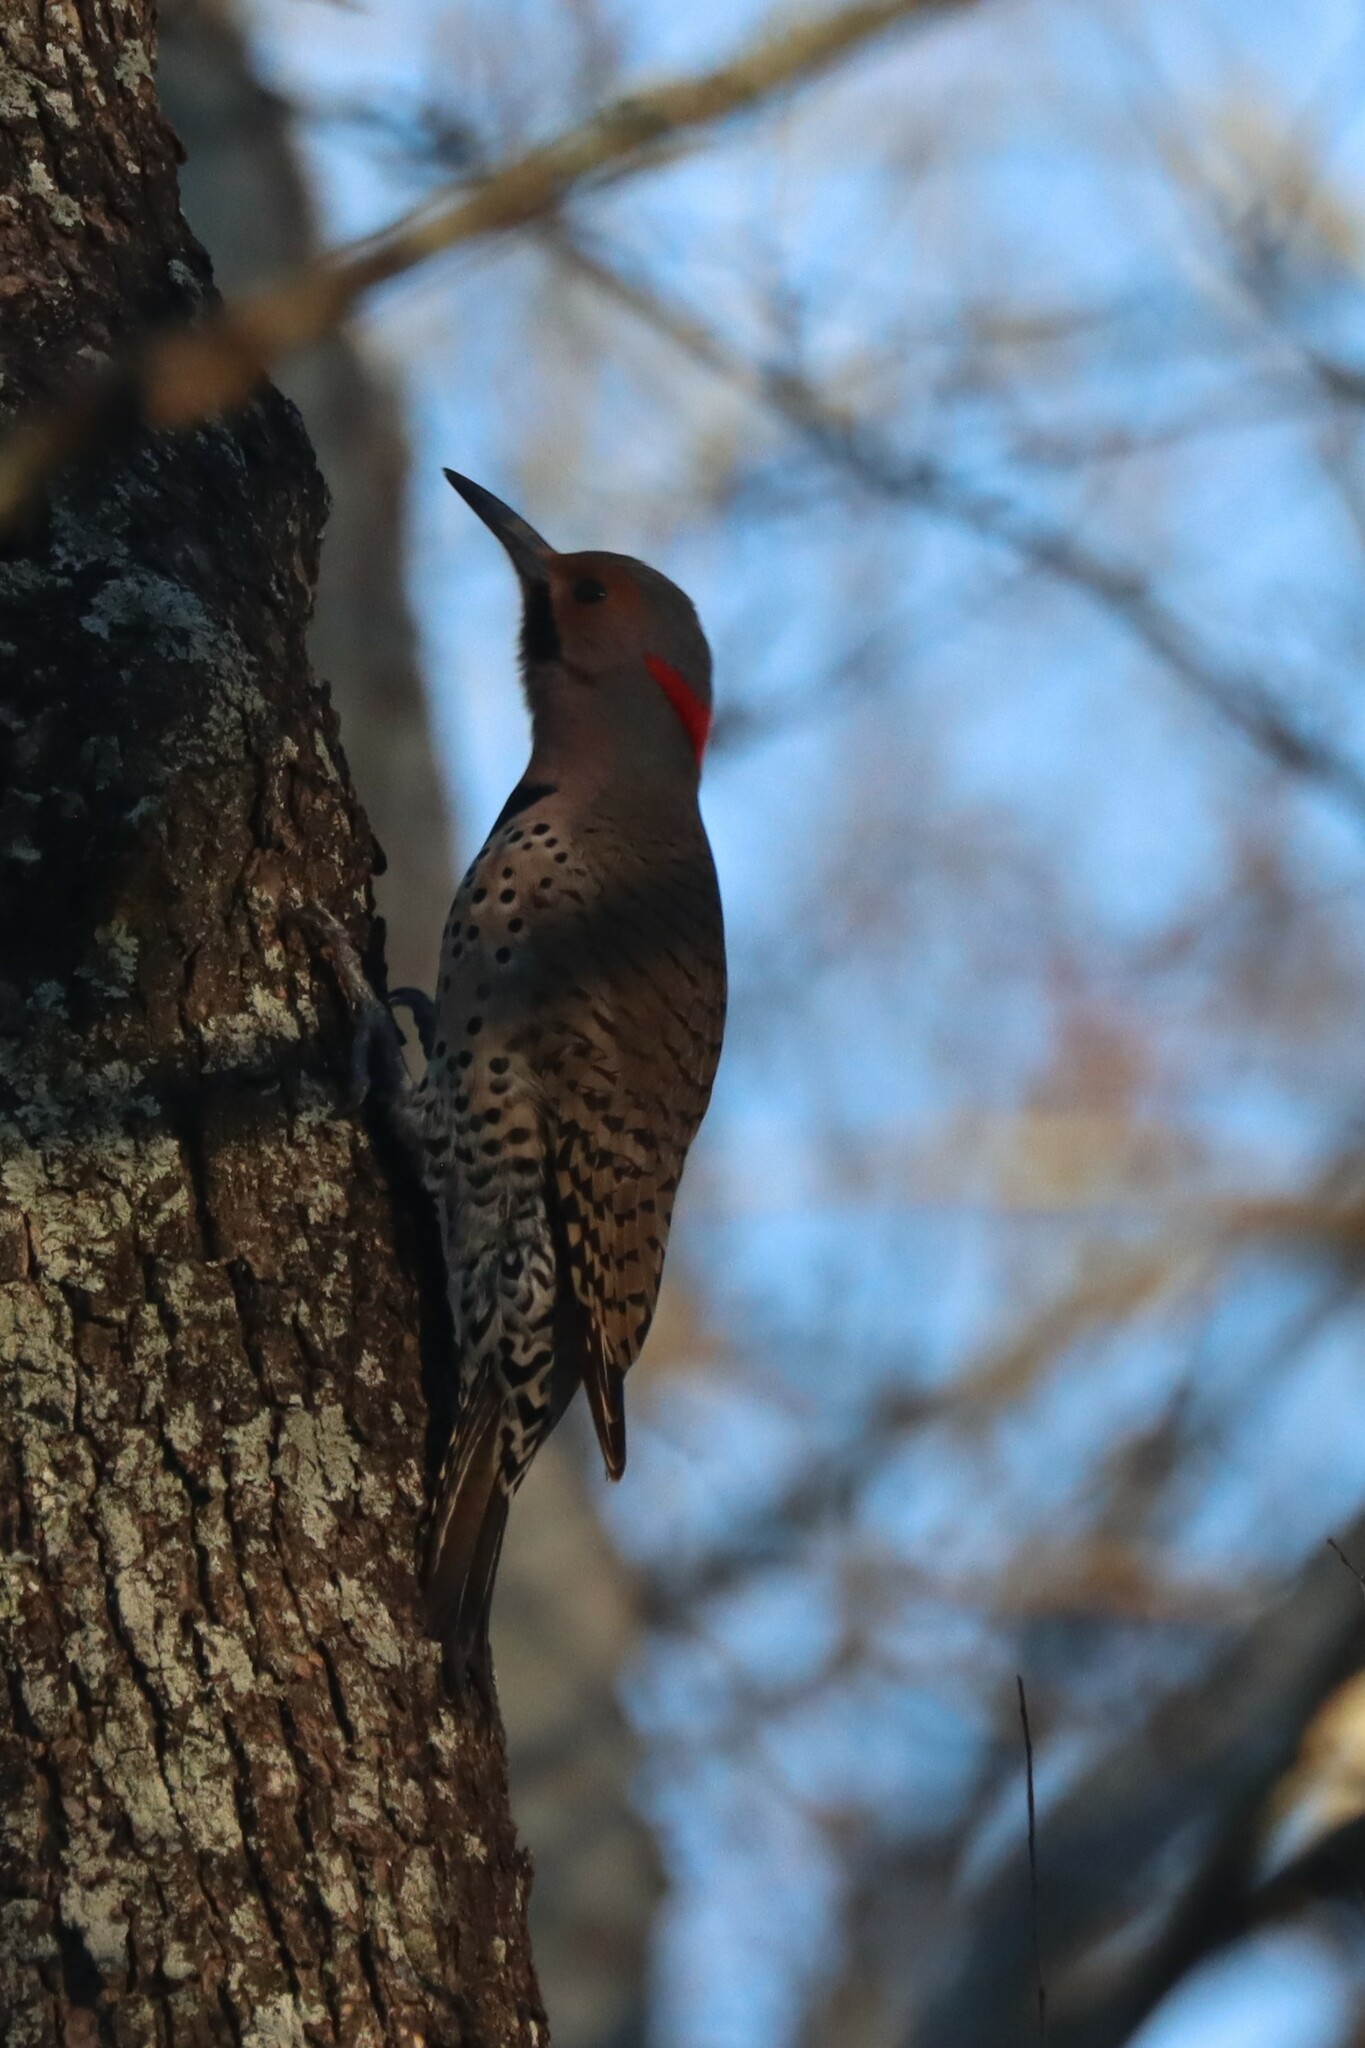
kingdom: Animalia
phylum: Chordata
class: Aves
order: Piciformes
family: Picidae
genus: Colaptes
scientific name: Colaptes auratus
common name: Northern flicker
